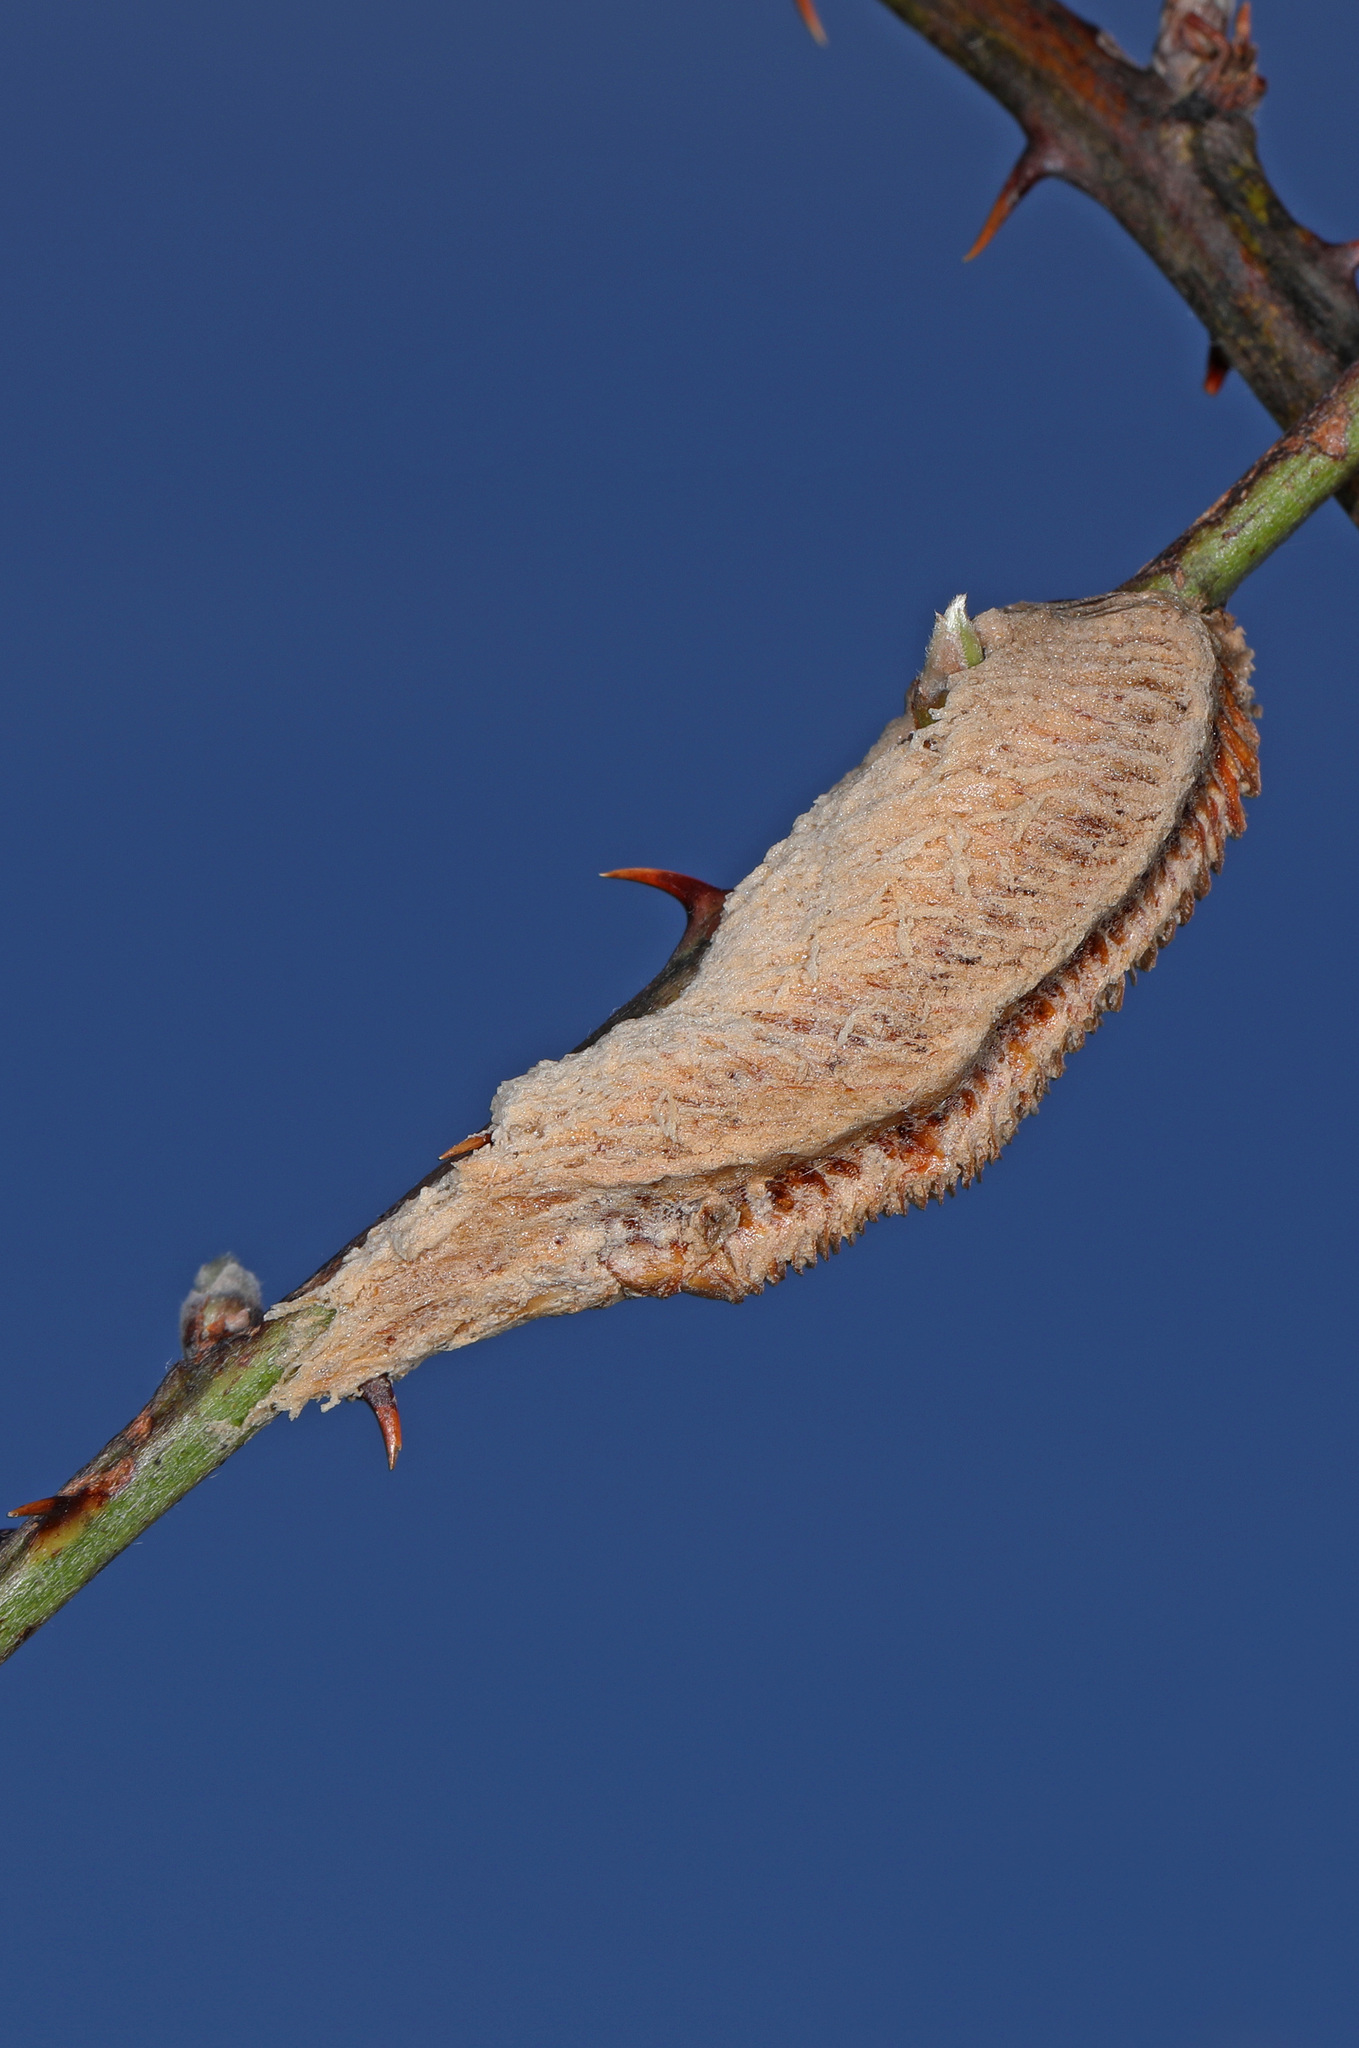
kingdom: Animalia
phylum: Arthropoda
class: Insecta
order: Mantodea
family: Mantidae
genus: Tenodera
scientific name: Tenodera angustipennis
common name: Asian mantis
